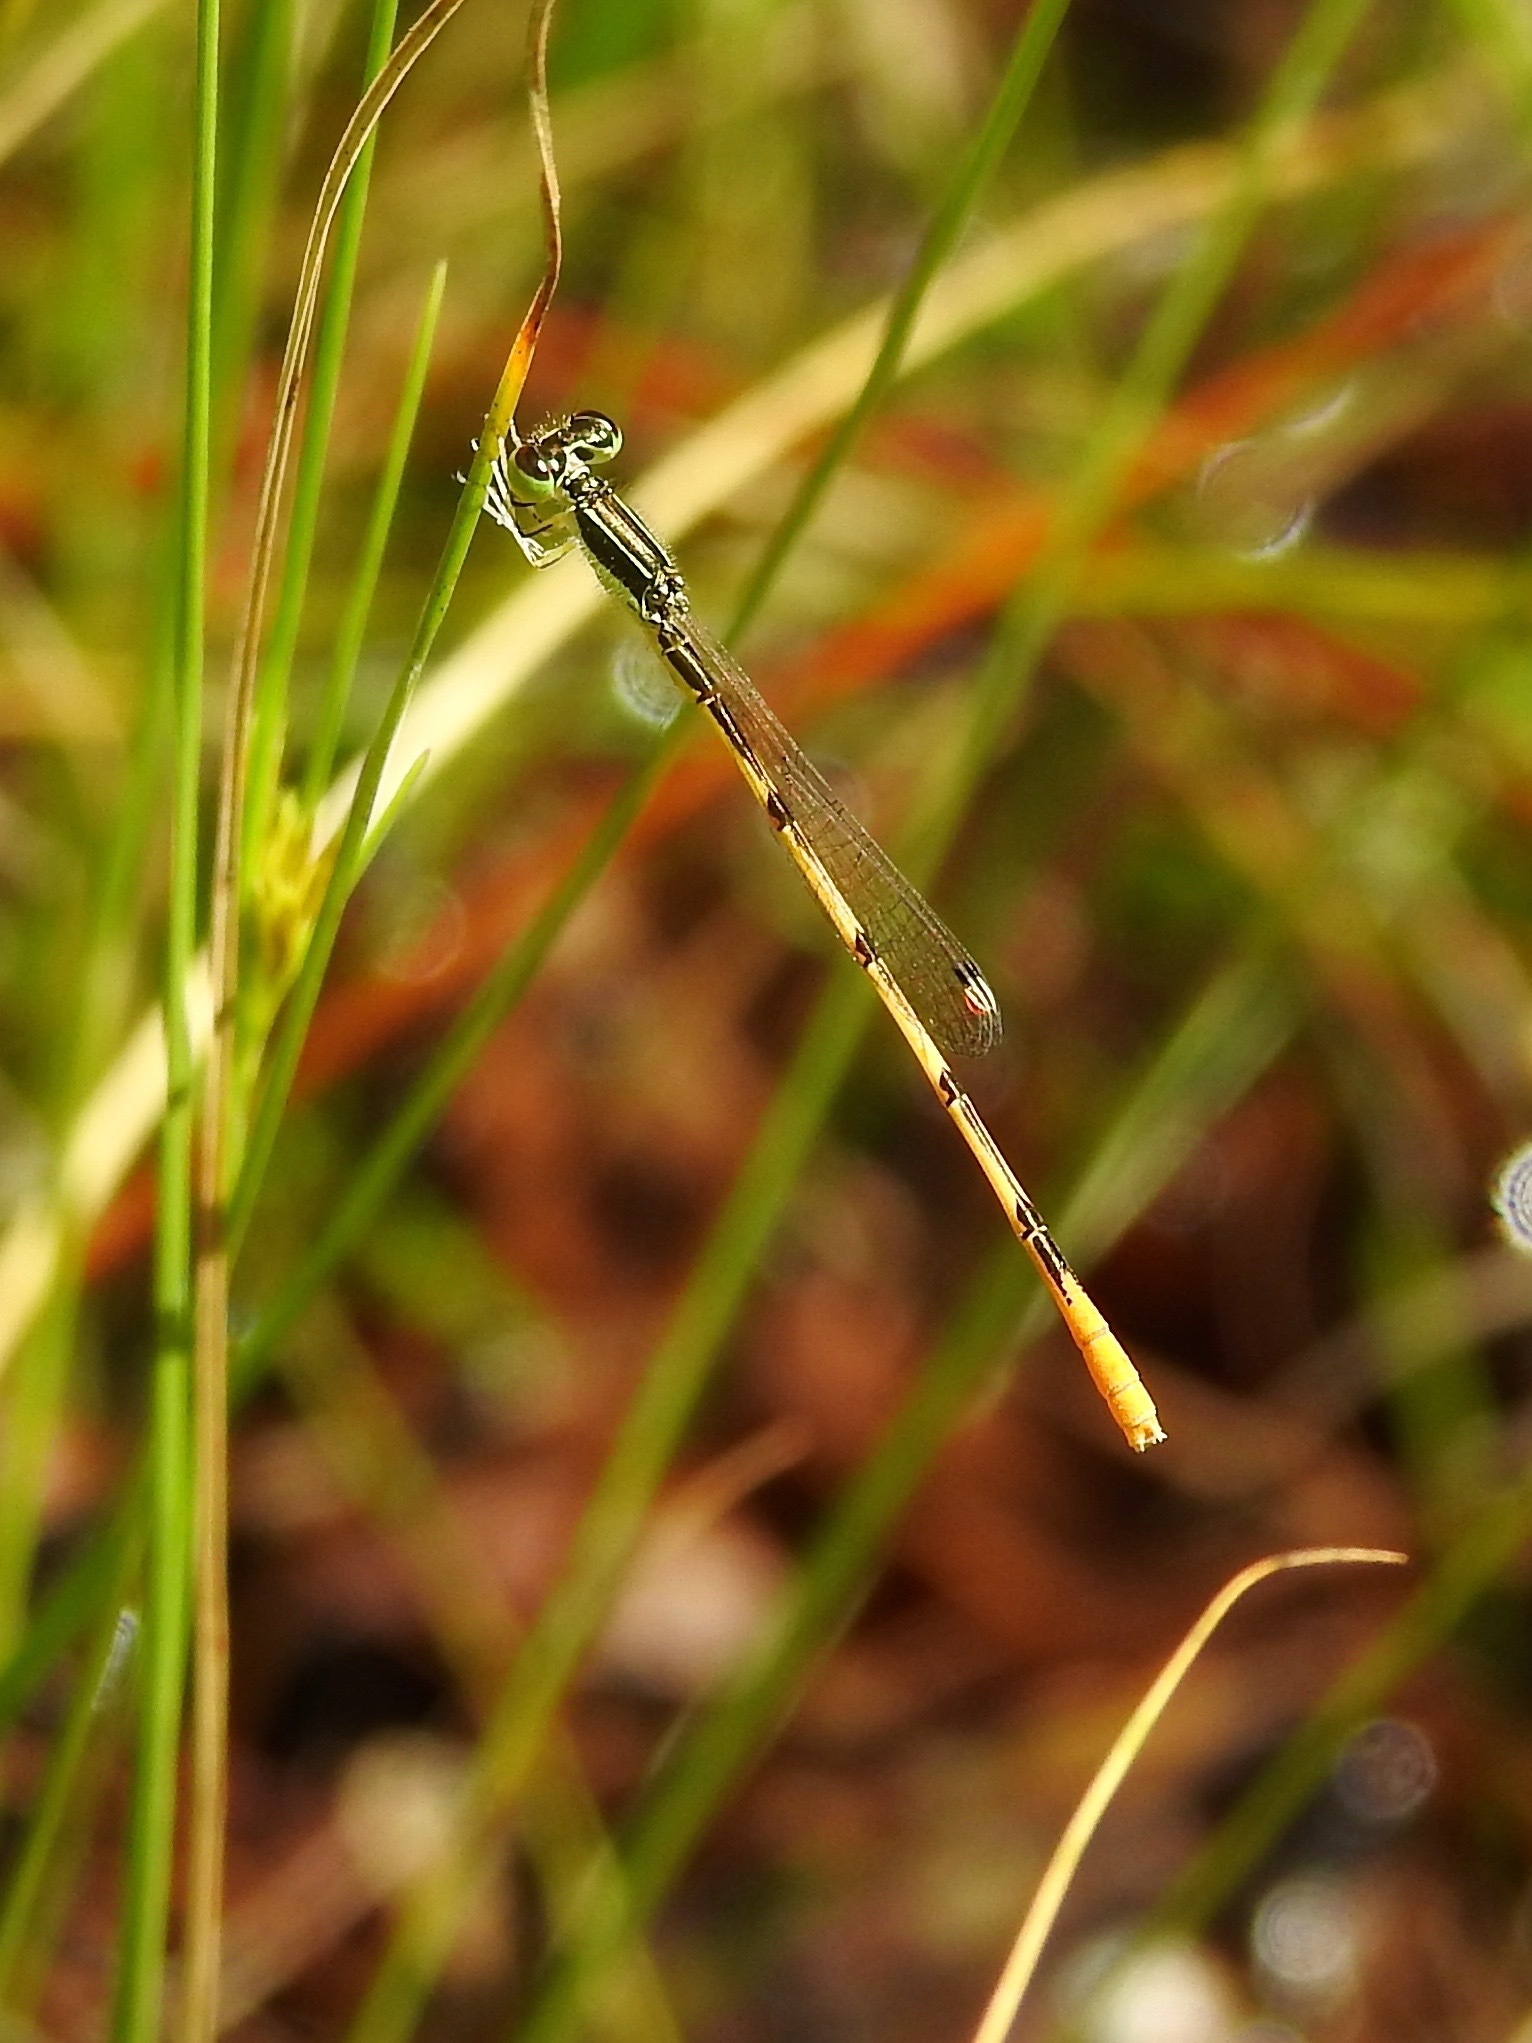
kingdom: Animalia
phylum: Arthropoda
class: Insecta
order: Odonata
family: Coenagrionidae
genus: Ischnura
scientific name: Ischnura hastata
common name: Citrine forktail
